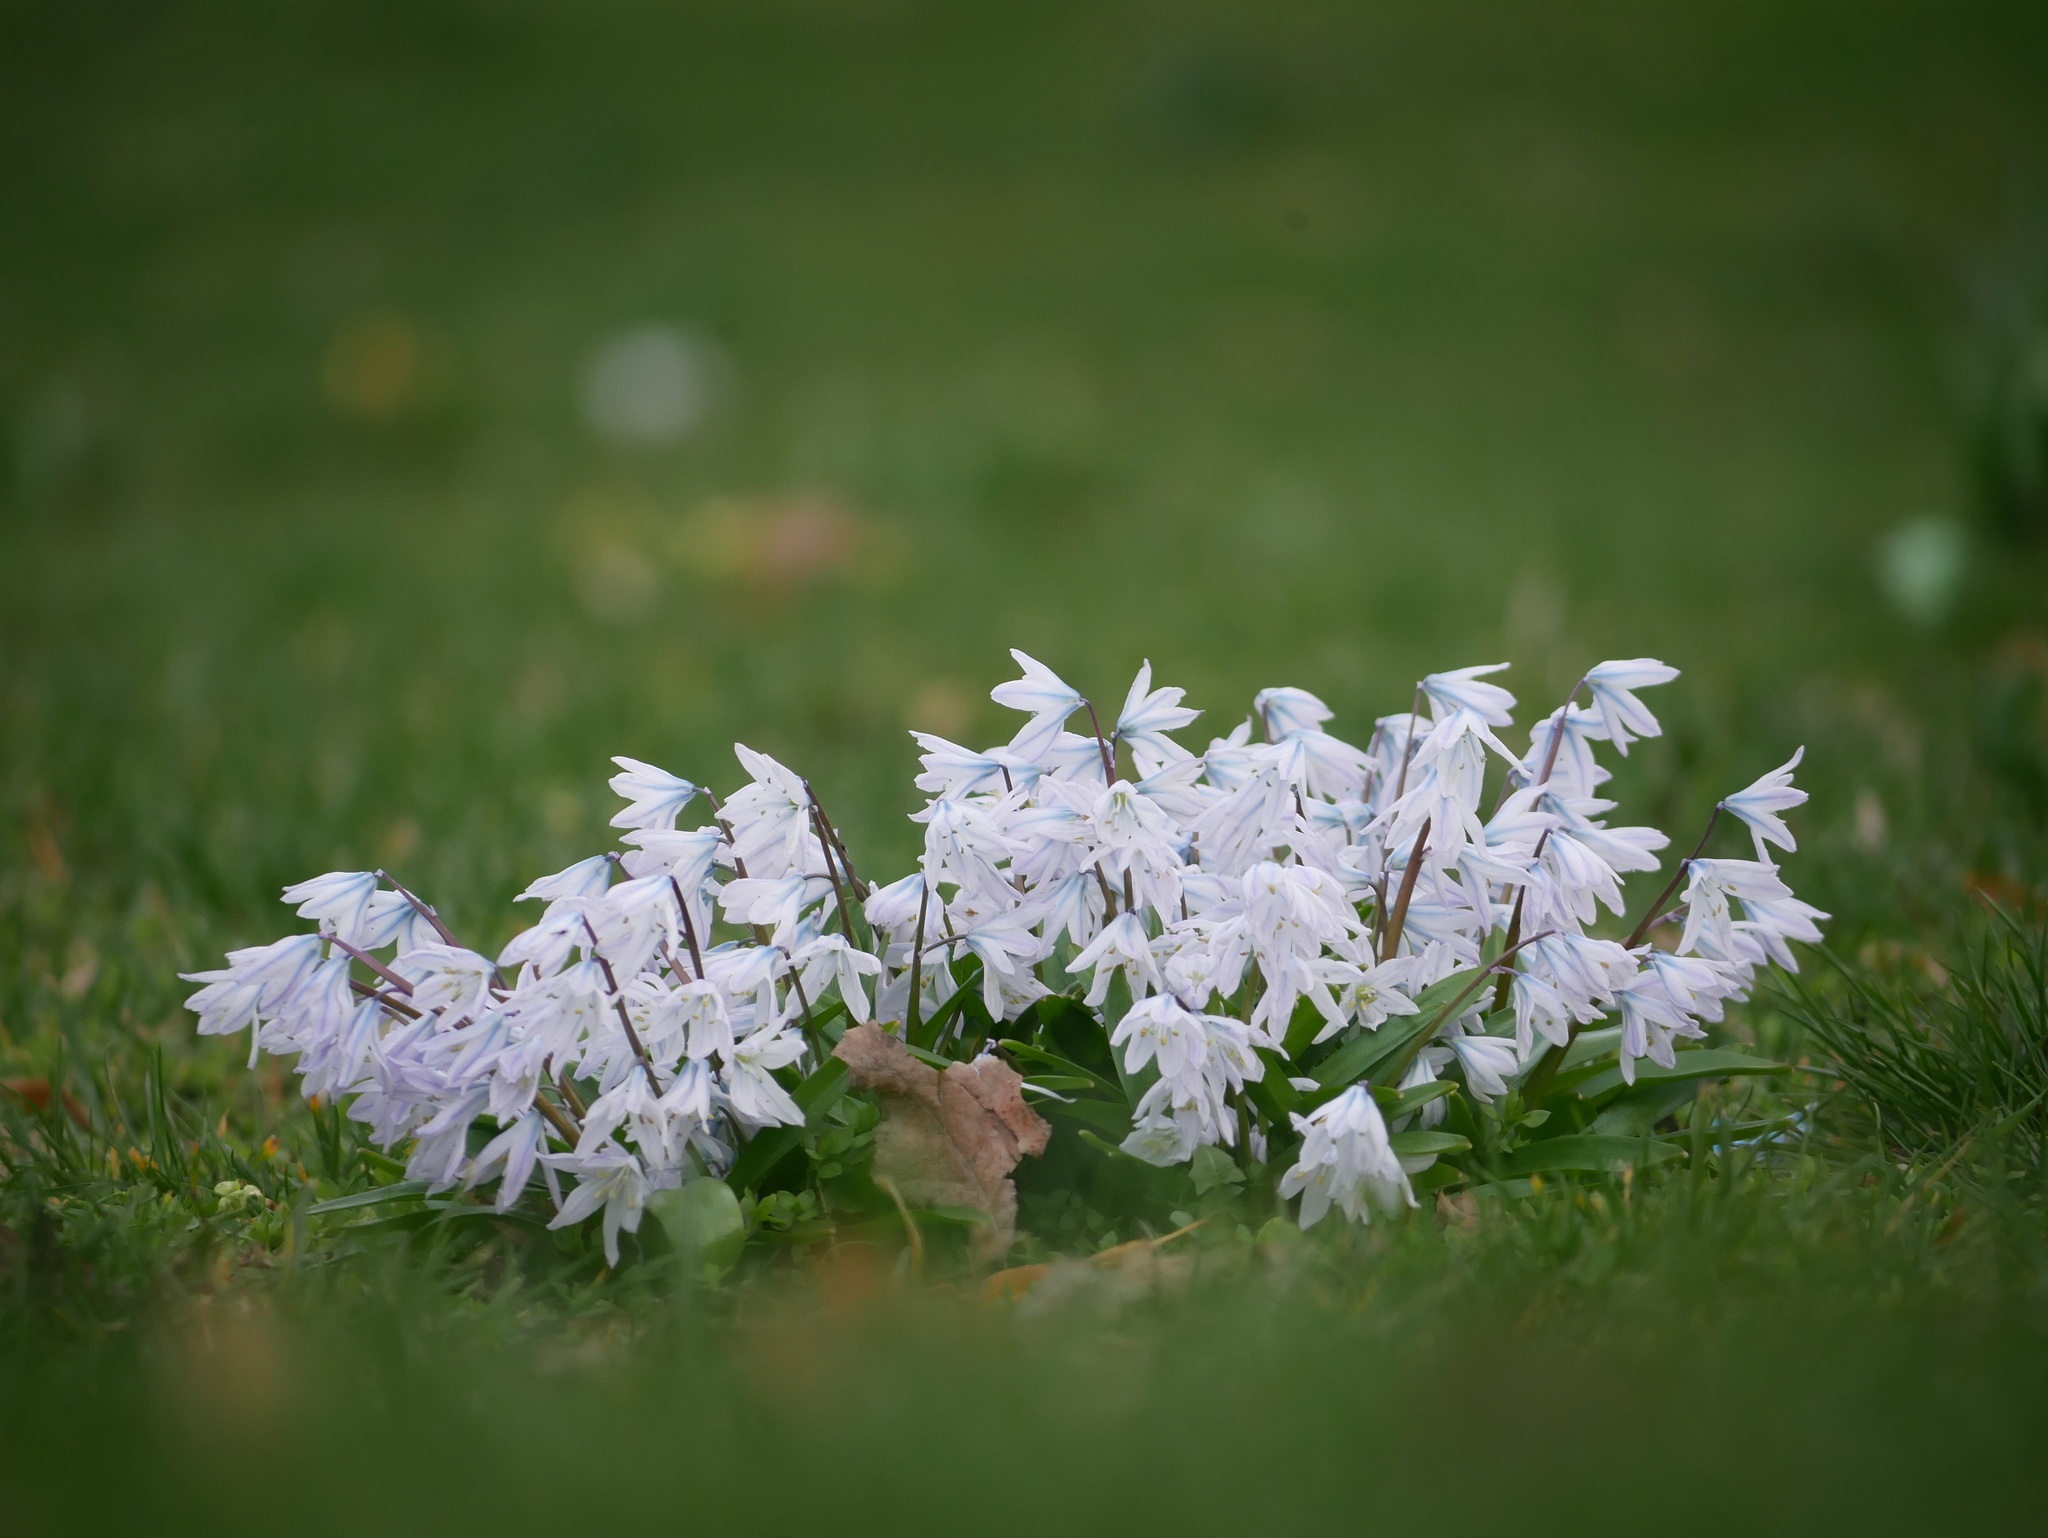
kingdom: Plantae
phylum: Tracheophyta
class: Liliopsida
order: Asparagales
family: Asparagaceae
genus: Scilla
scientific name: Scilla mischtschenkoana
